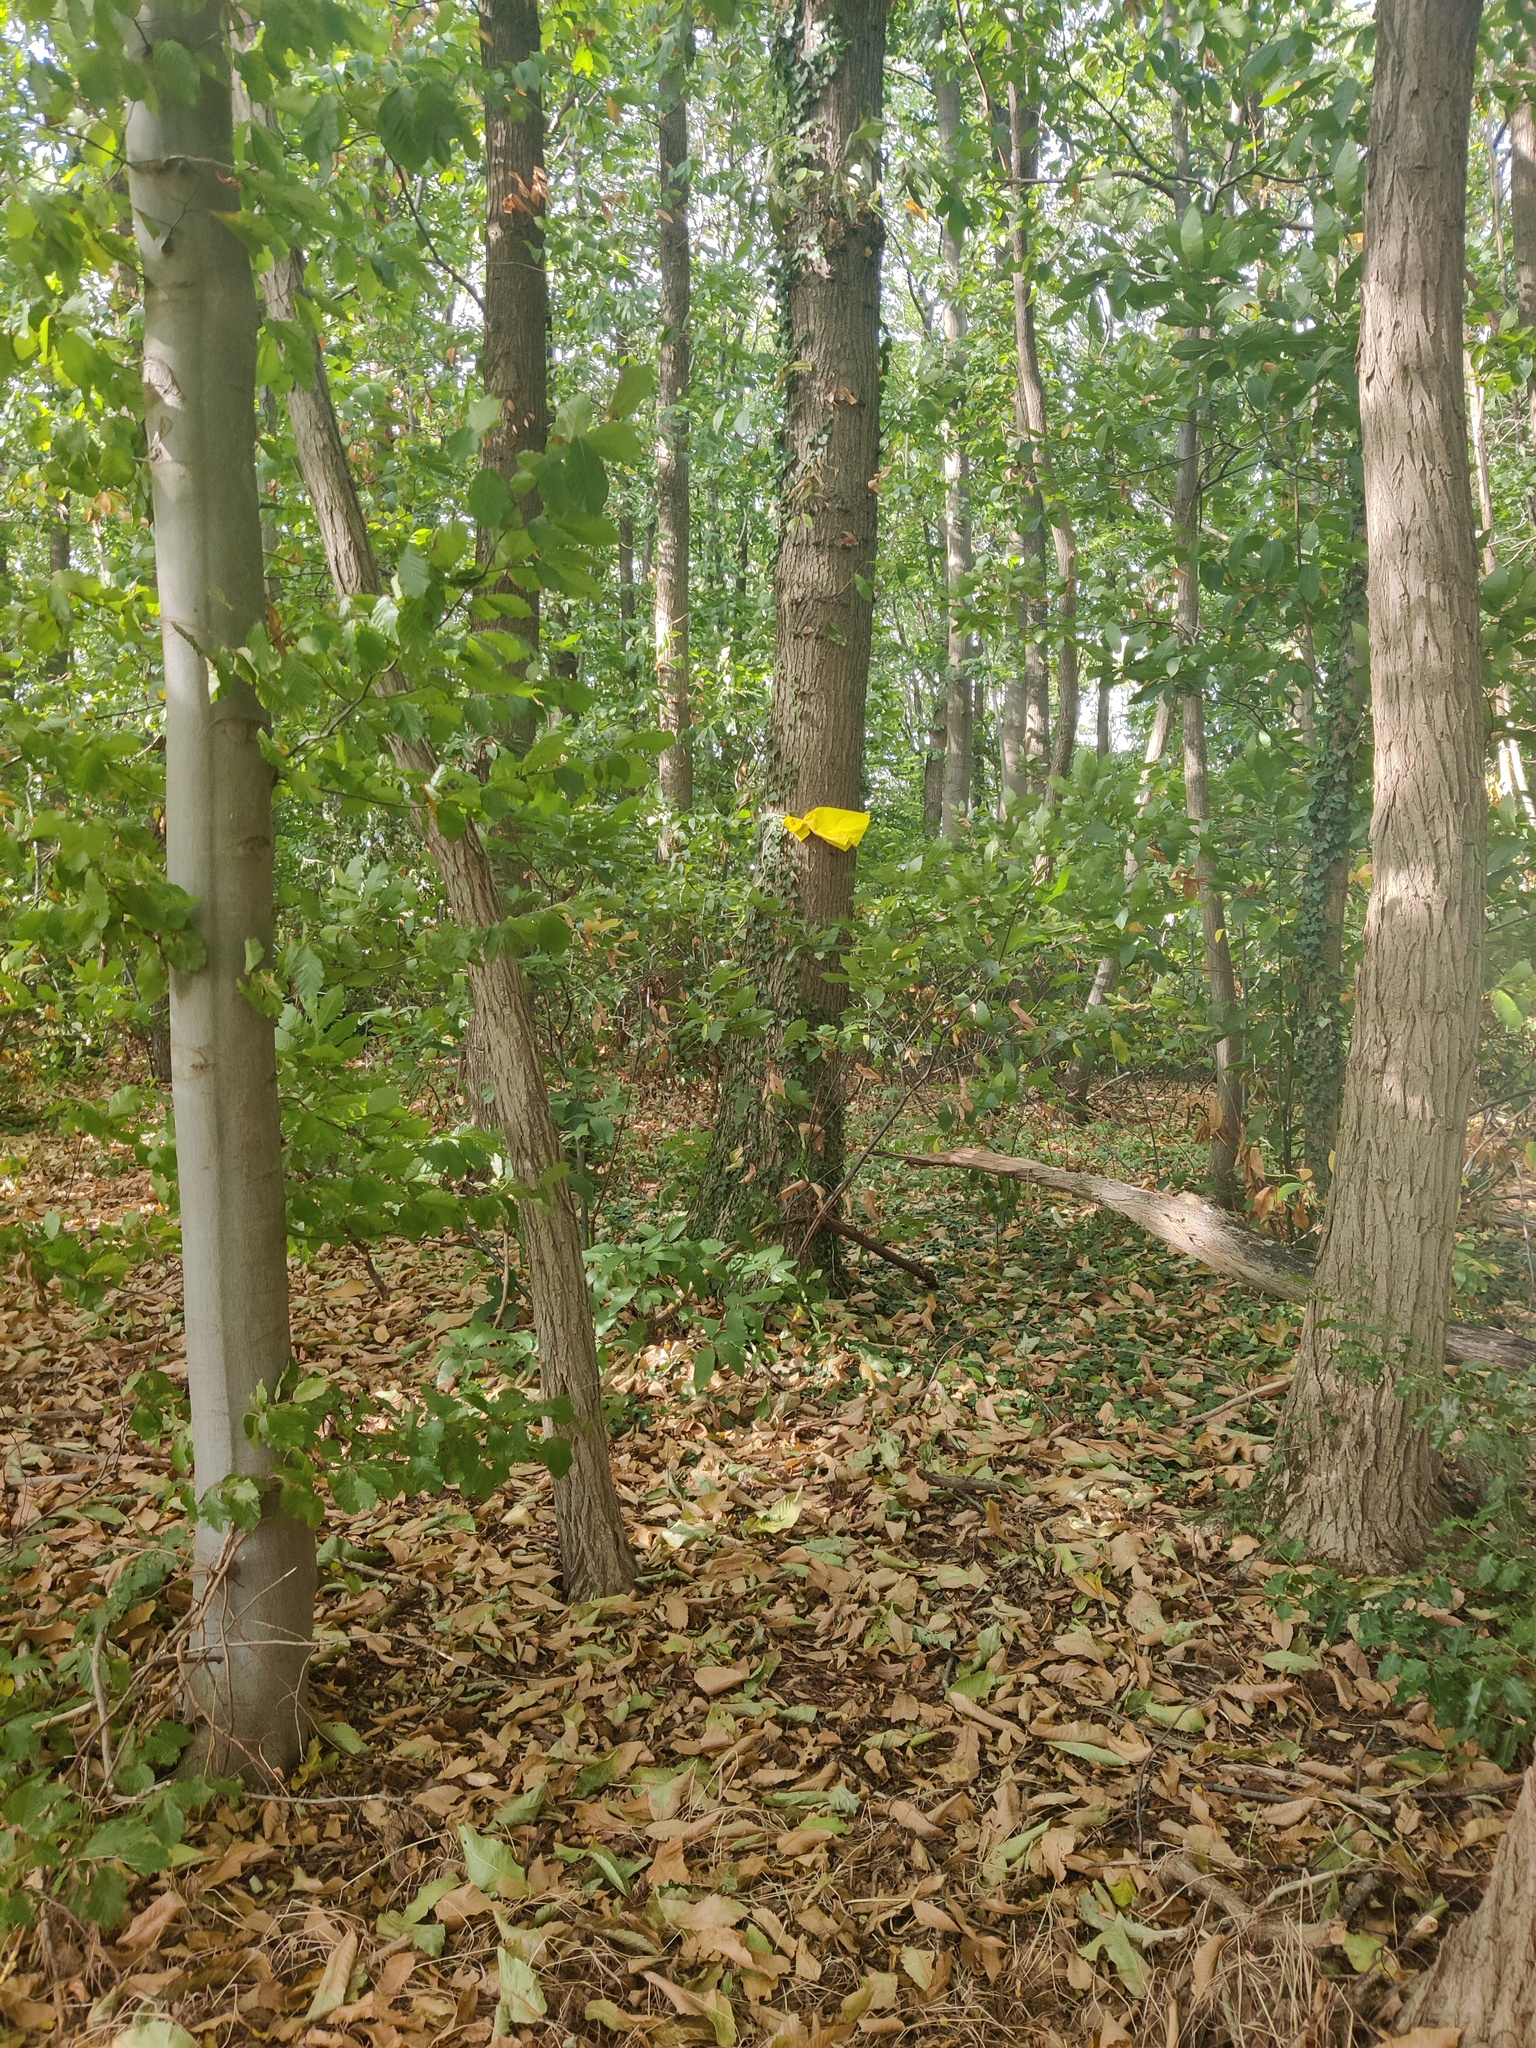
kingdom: Animalia
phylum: Arthropoda
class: Insecta
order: Hymenoptera
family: Vespidae
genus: Vespa
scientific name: Vespa velutina
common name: Asian hornet
